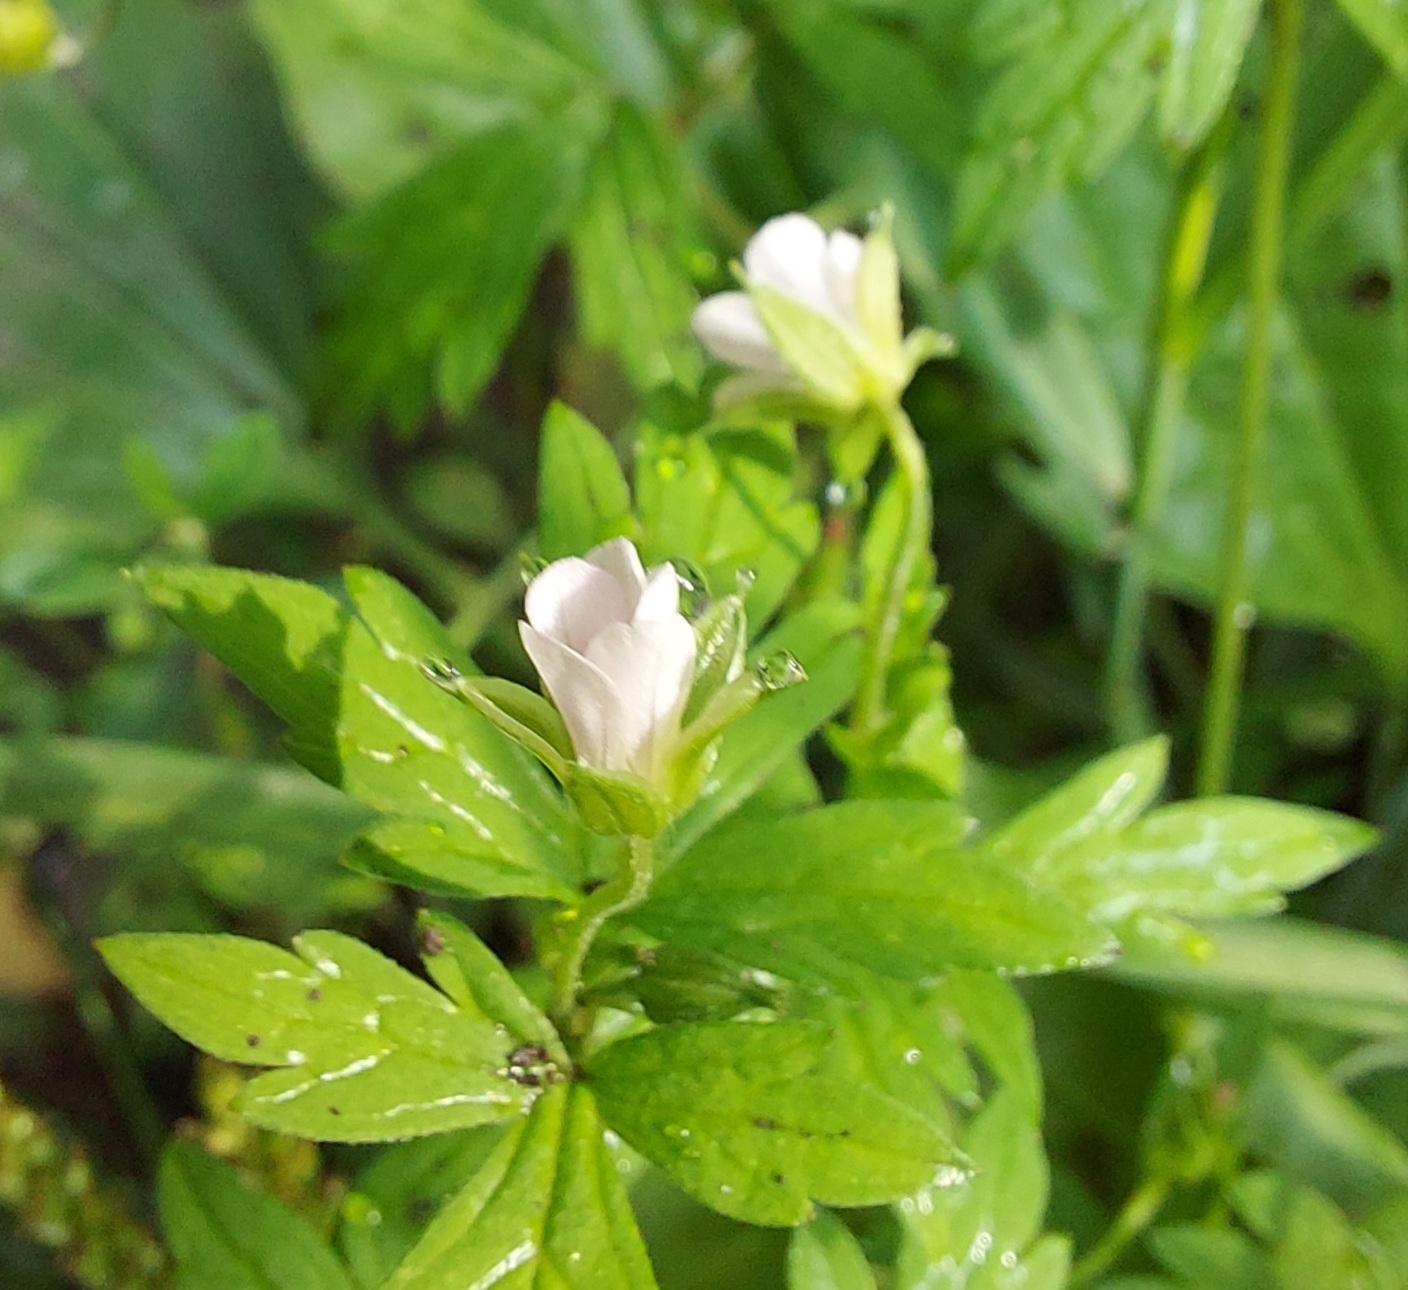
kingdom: Plantae
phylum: Tracheophyta
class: Magnoliopsida
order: Geraniales
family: Geraniaceae
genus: Geranium
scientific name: Geranium sibiricum
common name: Siberian crane's-bill
